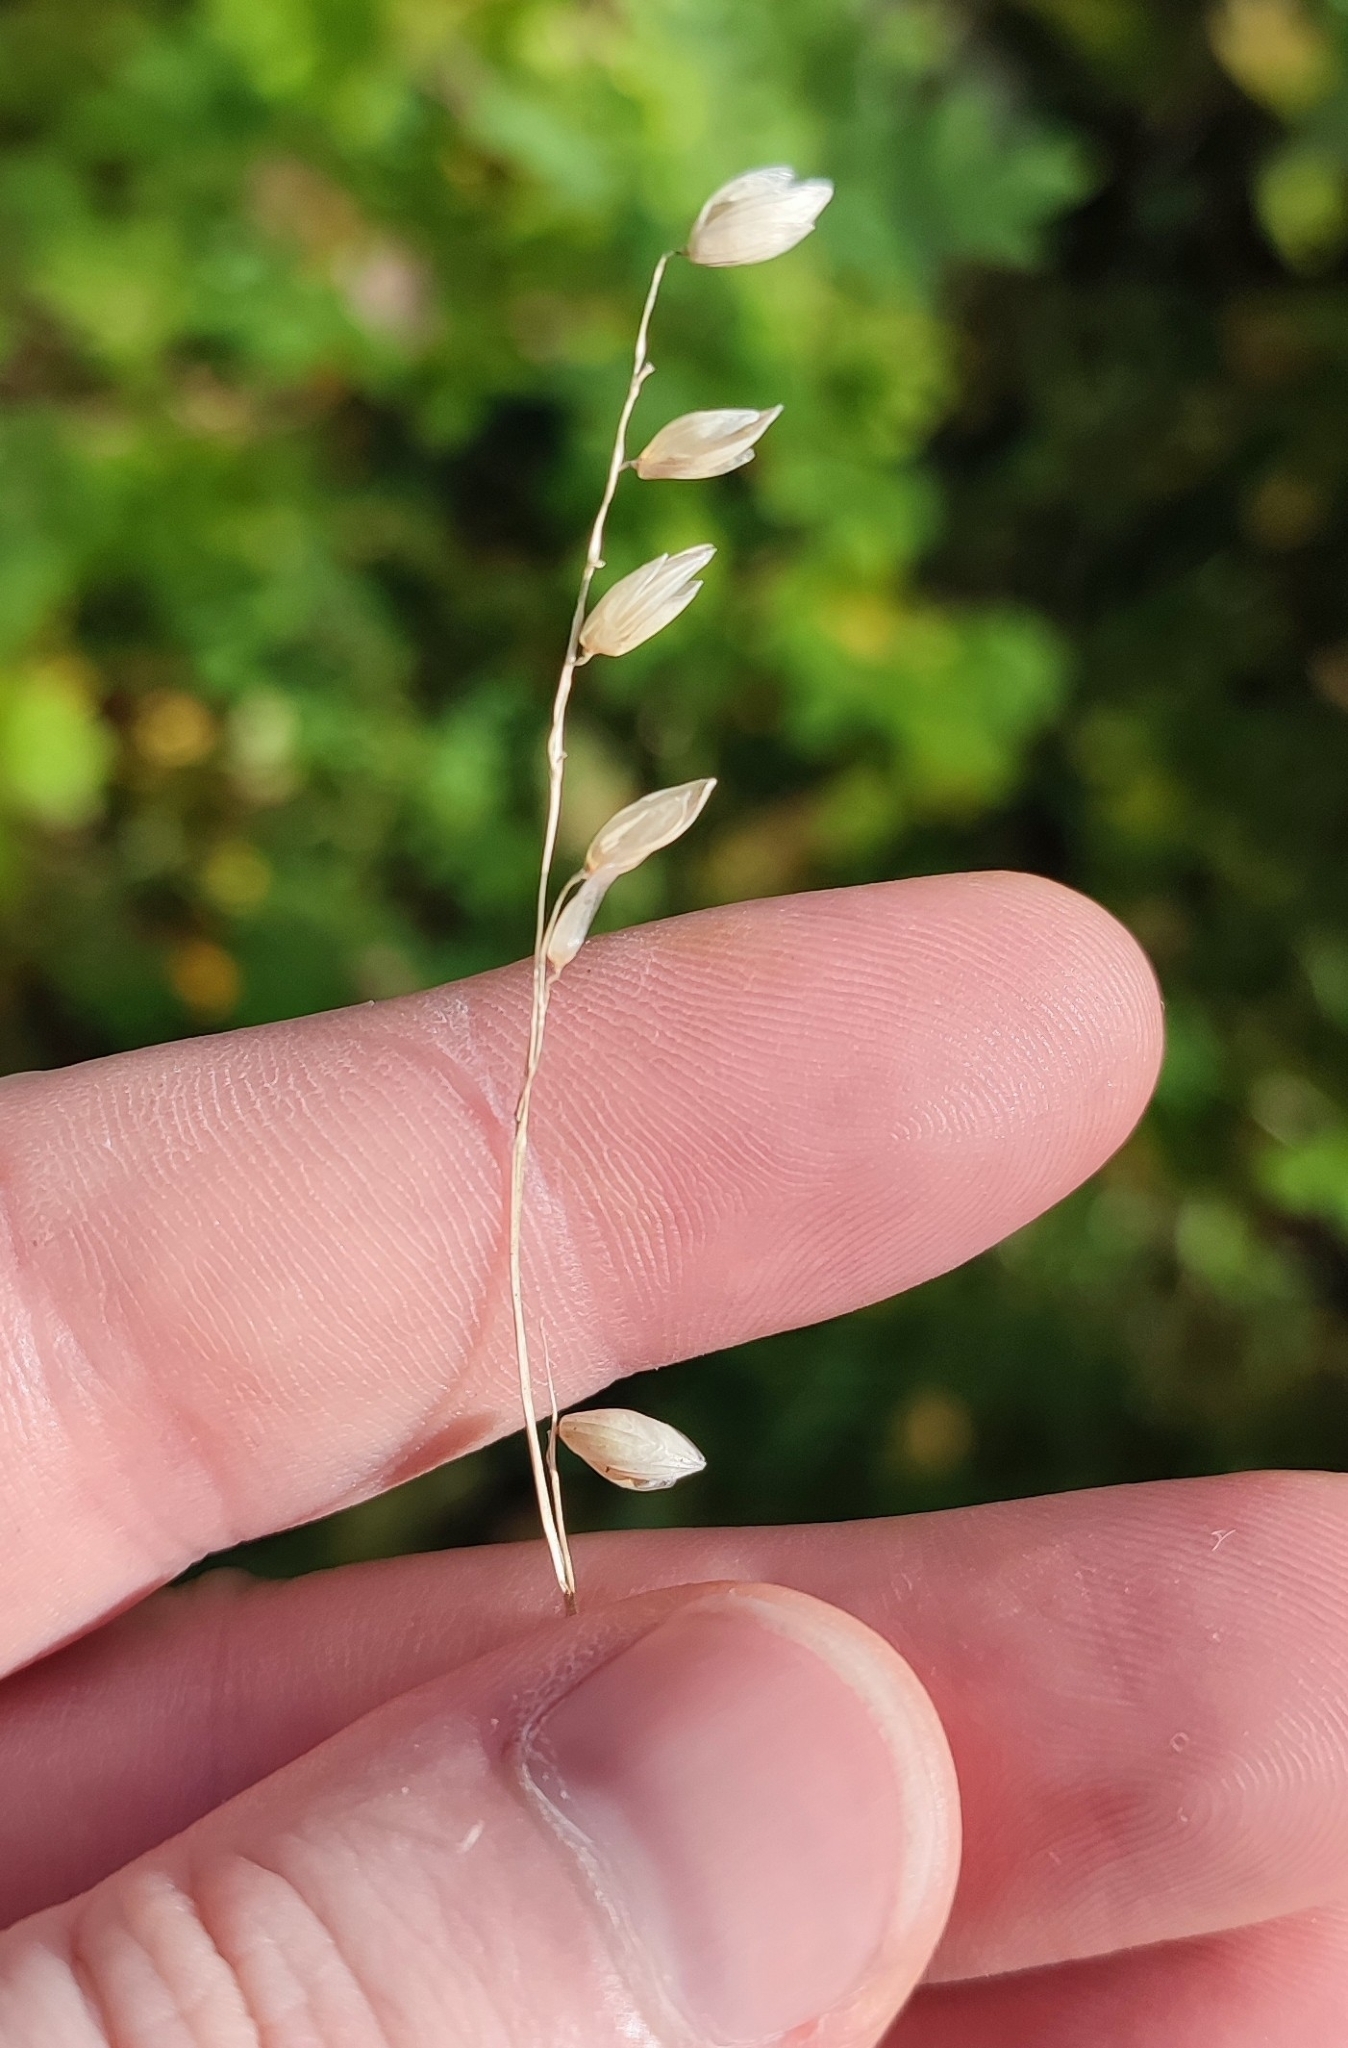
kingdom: Plantae
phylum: Tracheophyta
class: Liliopsida
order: Poales
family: Poaceae
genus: Melica
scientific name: Melica nutans
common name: Mountain melick
